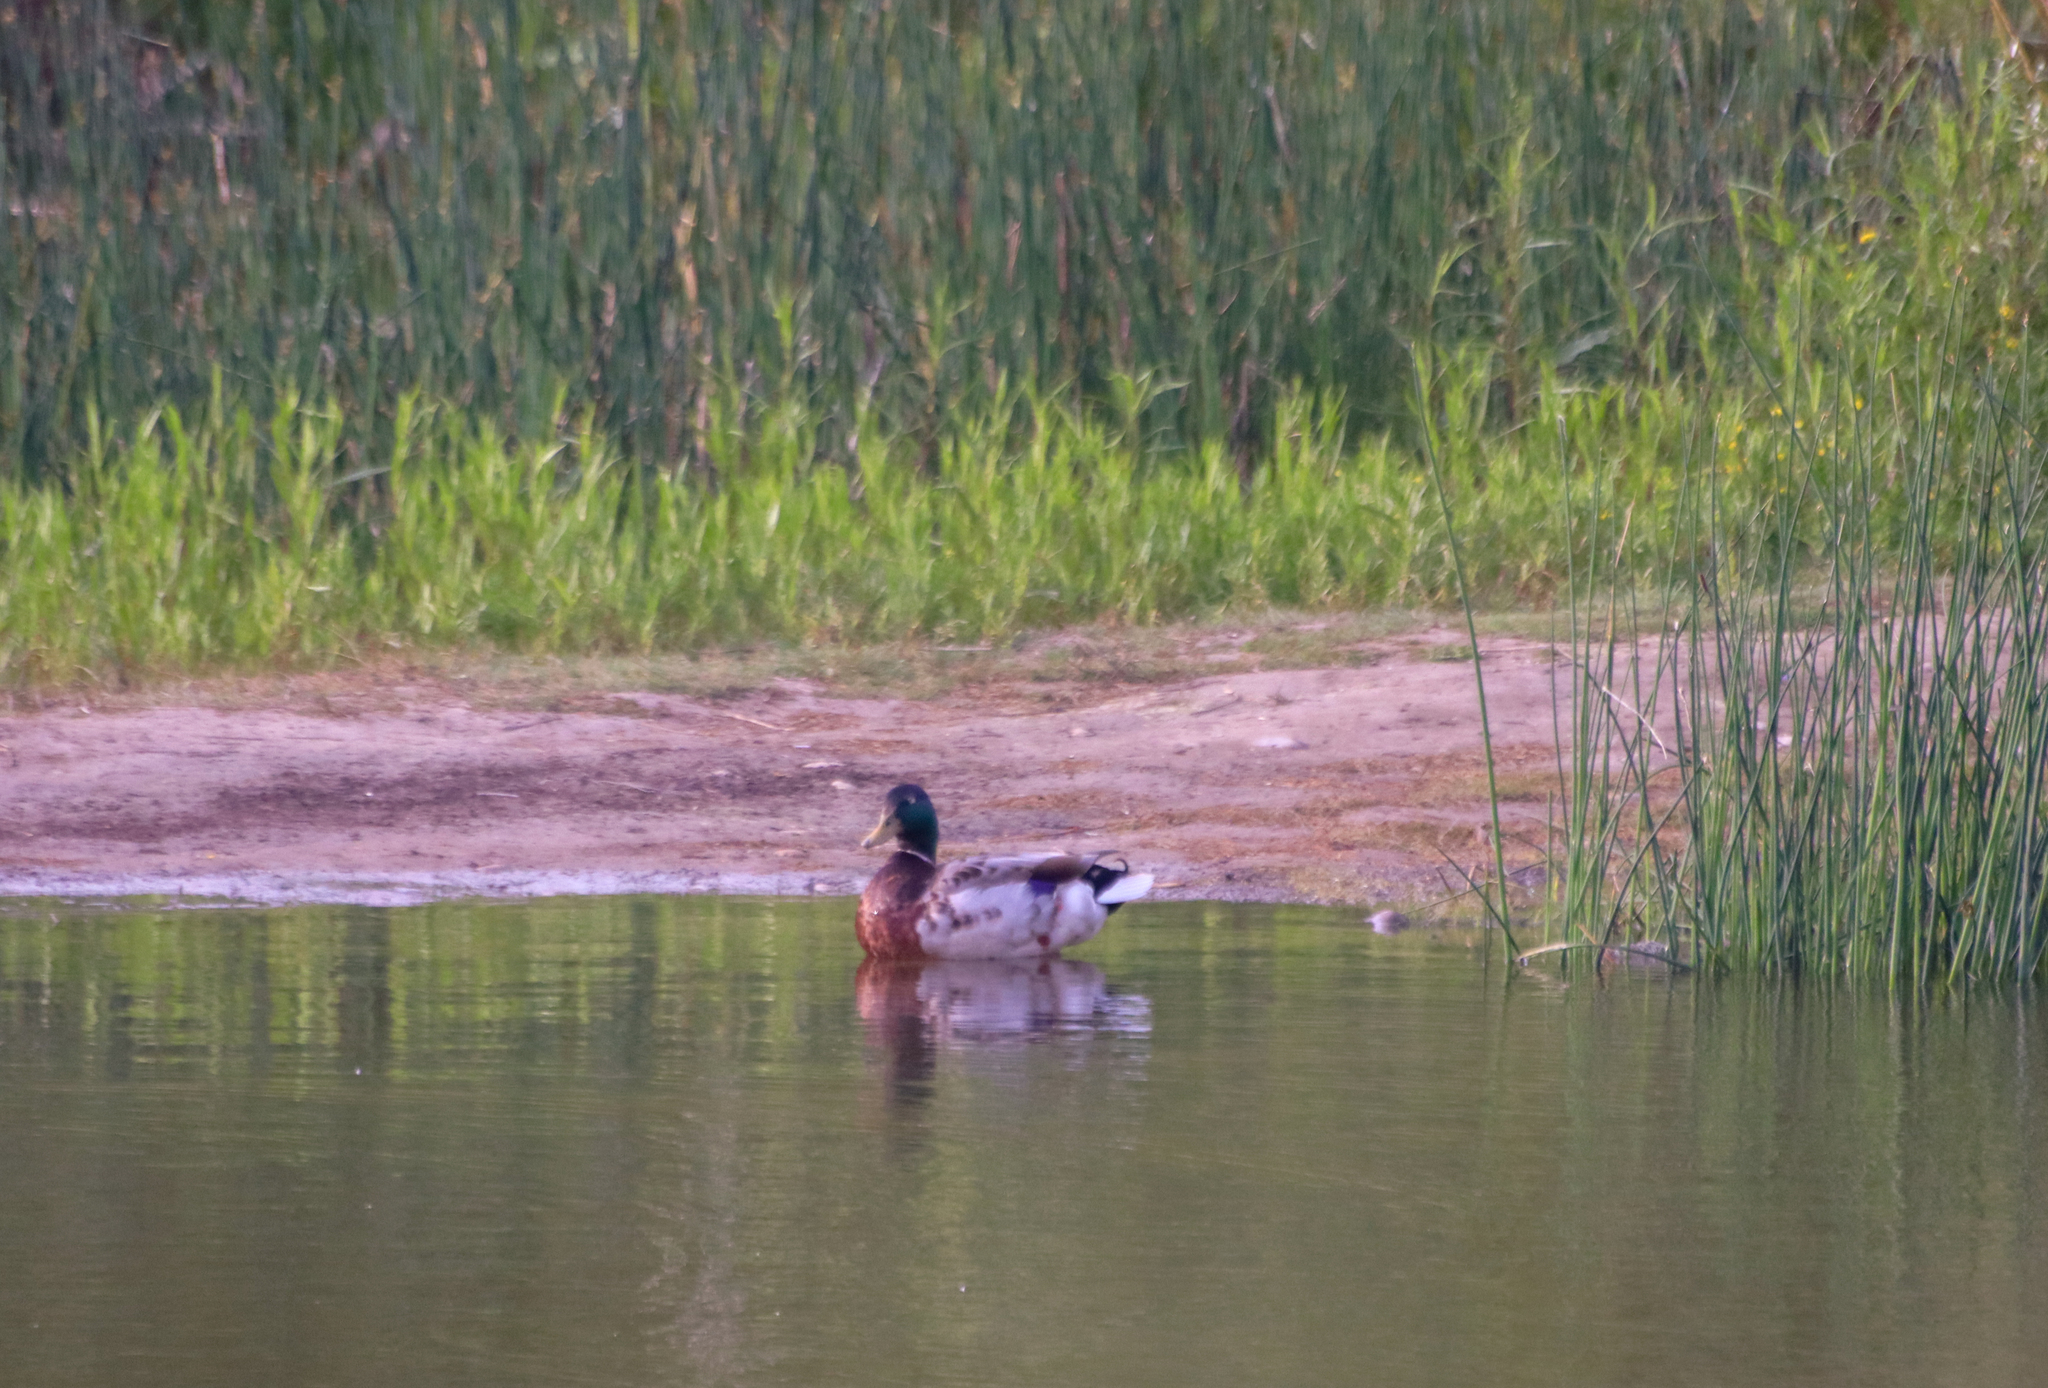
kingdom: Animalia
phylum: Chordata
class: Aves
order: Anseriformes
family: Anatidae
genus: Anas
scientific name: Anas platyrhynchos
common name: Mallard
